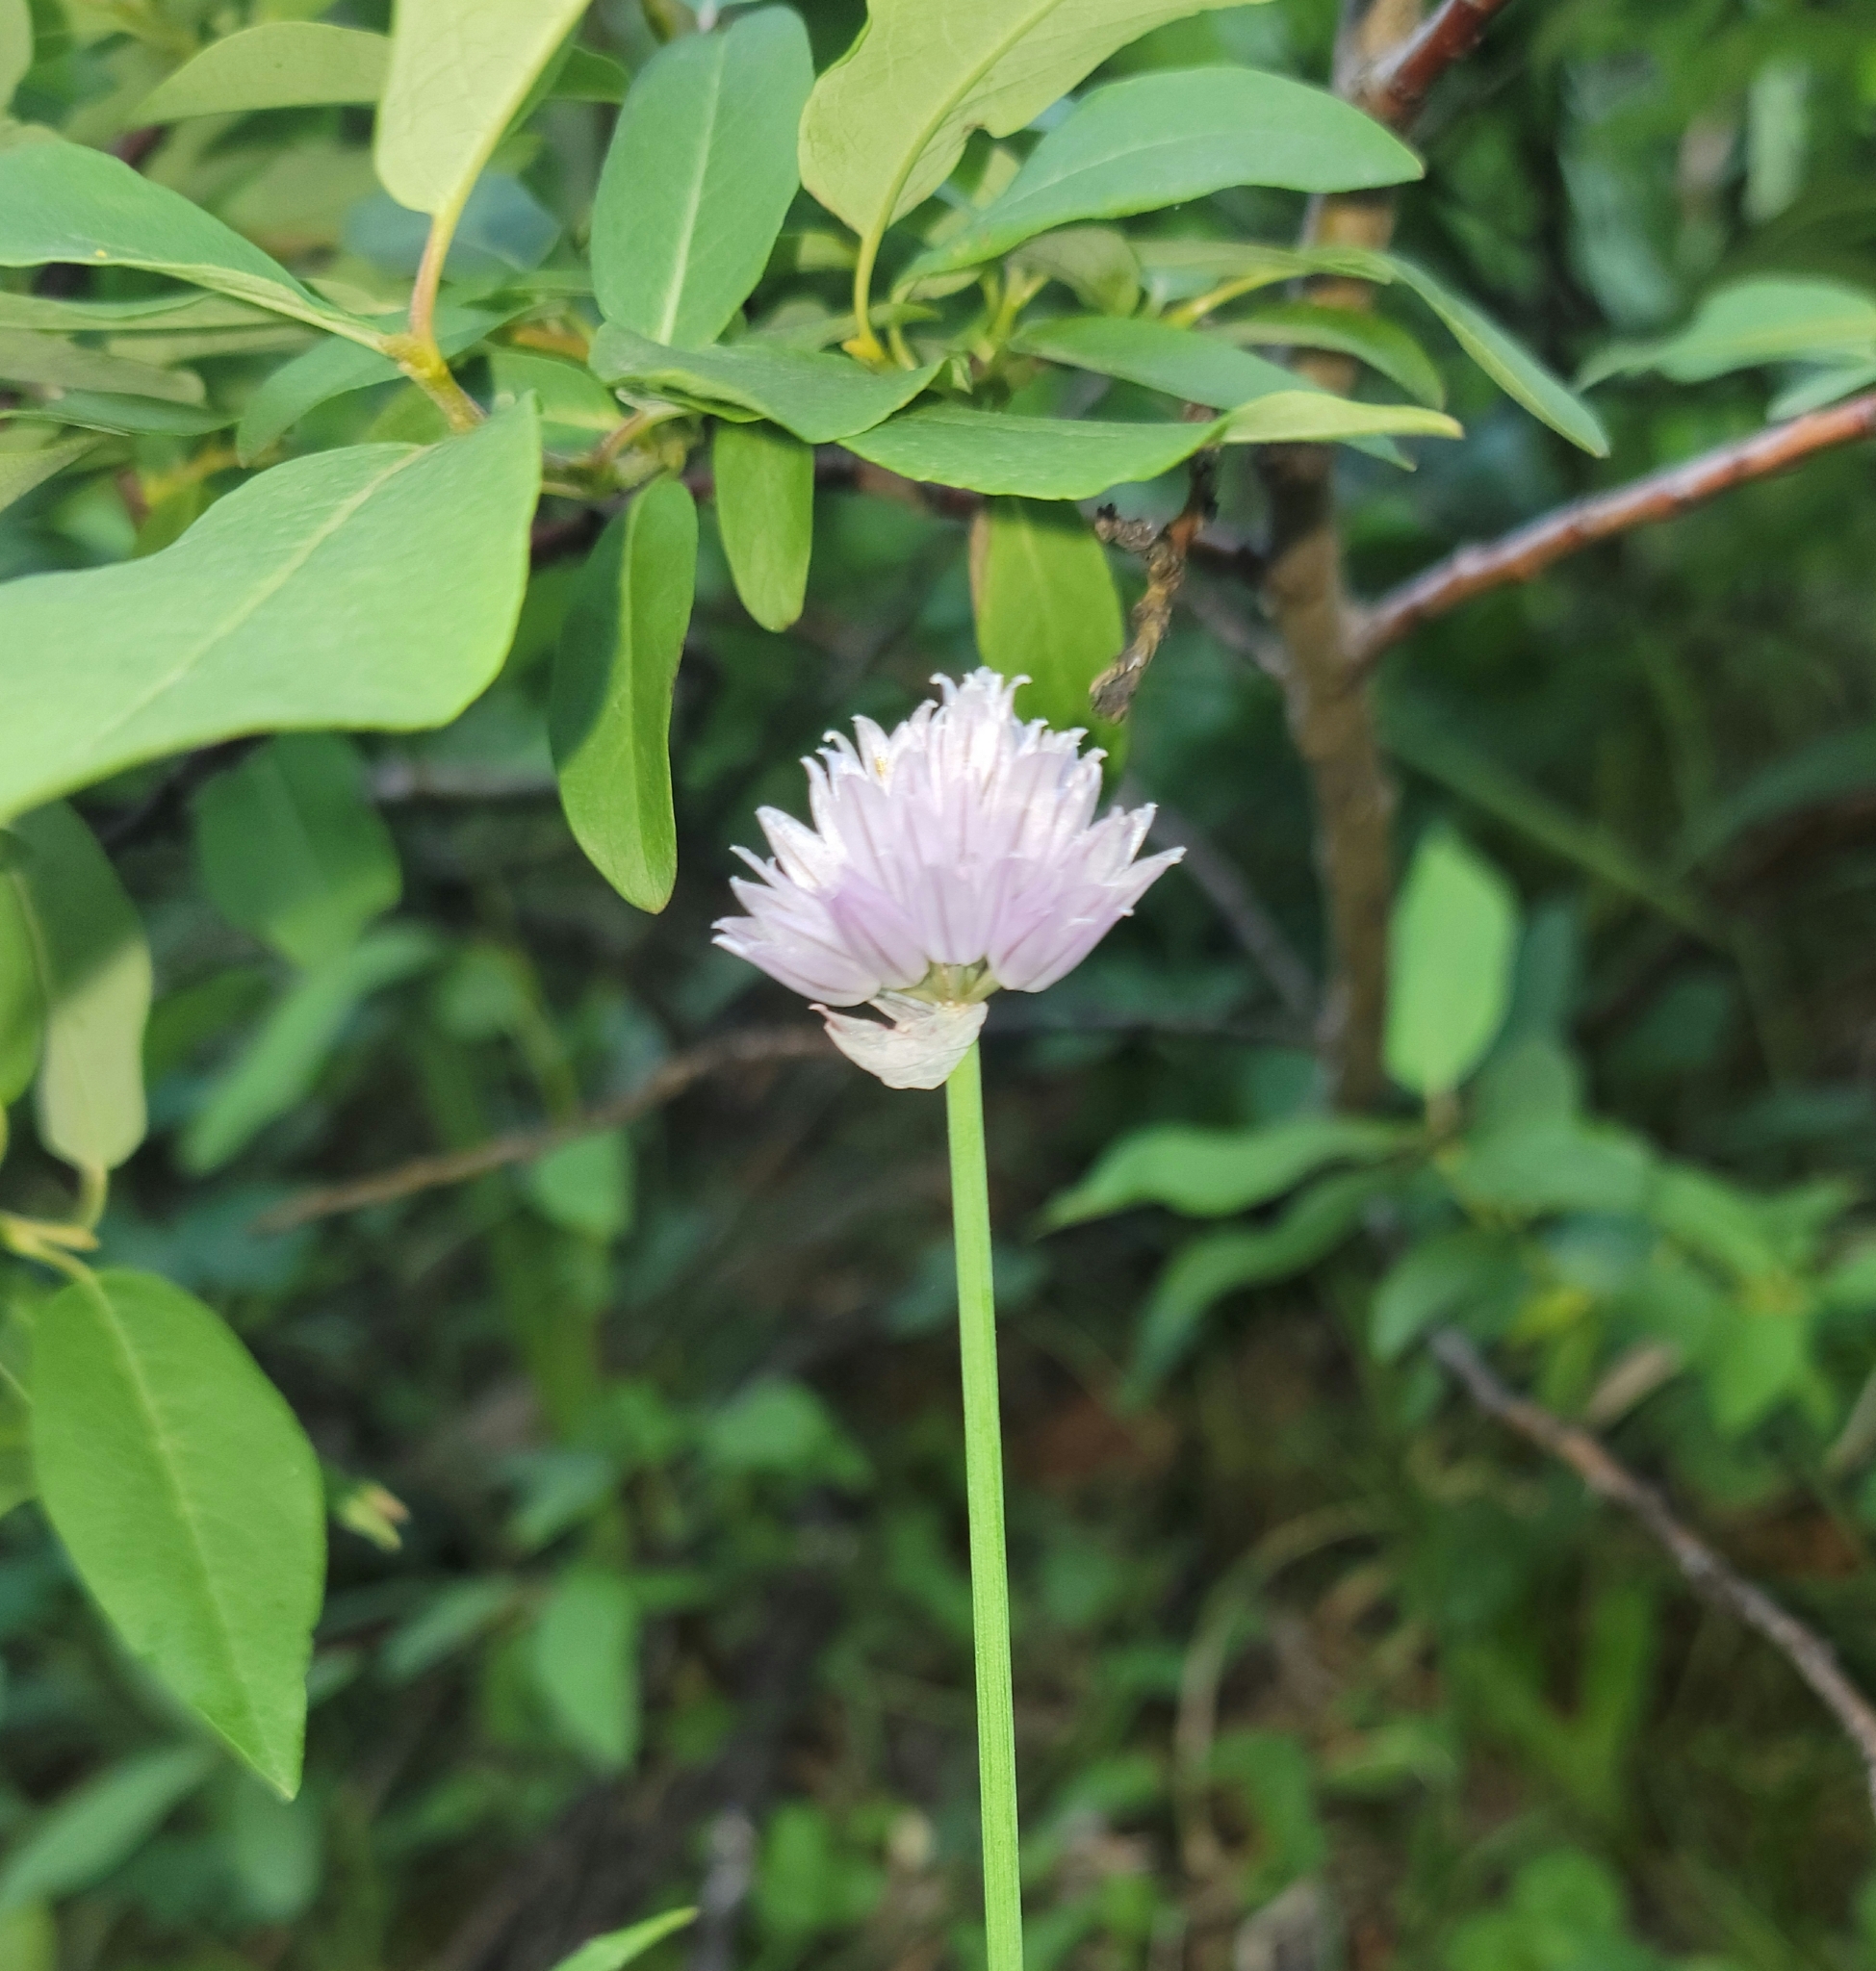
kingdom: Plantae
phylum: Tracheophyta
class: Liliopsida
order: Asparagales
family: Amaryllidaceae
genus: Allium
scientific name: Allium schoenoprasum
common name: Chives
